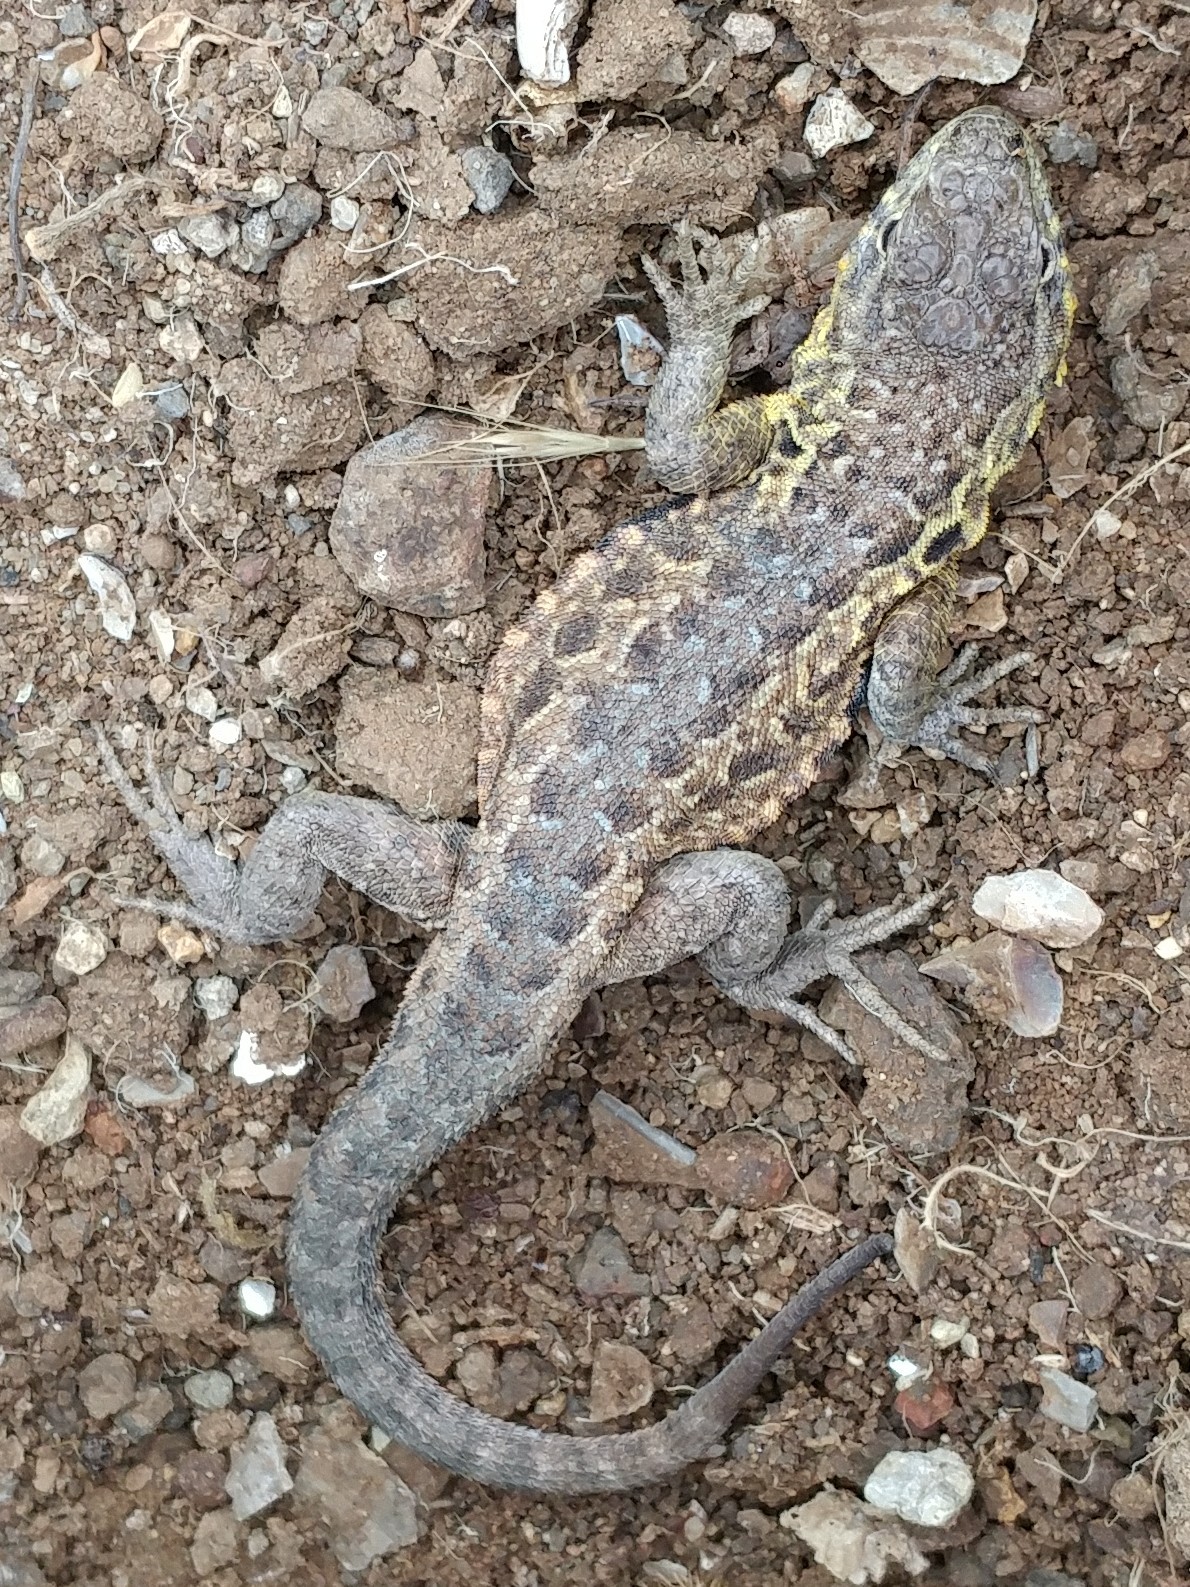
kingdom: Animalia
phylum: Chordata
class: Squamata
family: Phrynosomatidae
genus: Uta
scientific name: Uta stansburiana
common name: Side-blotched lizard
